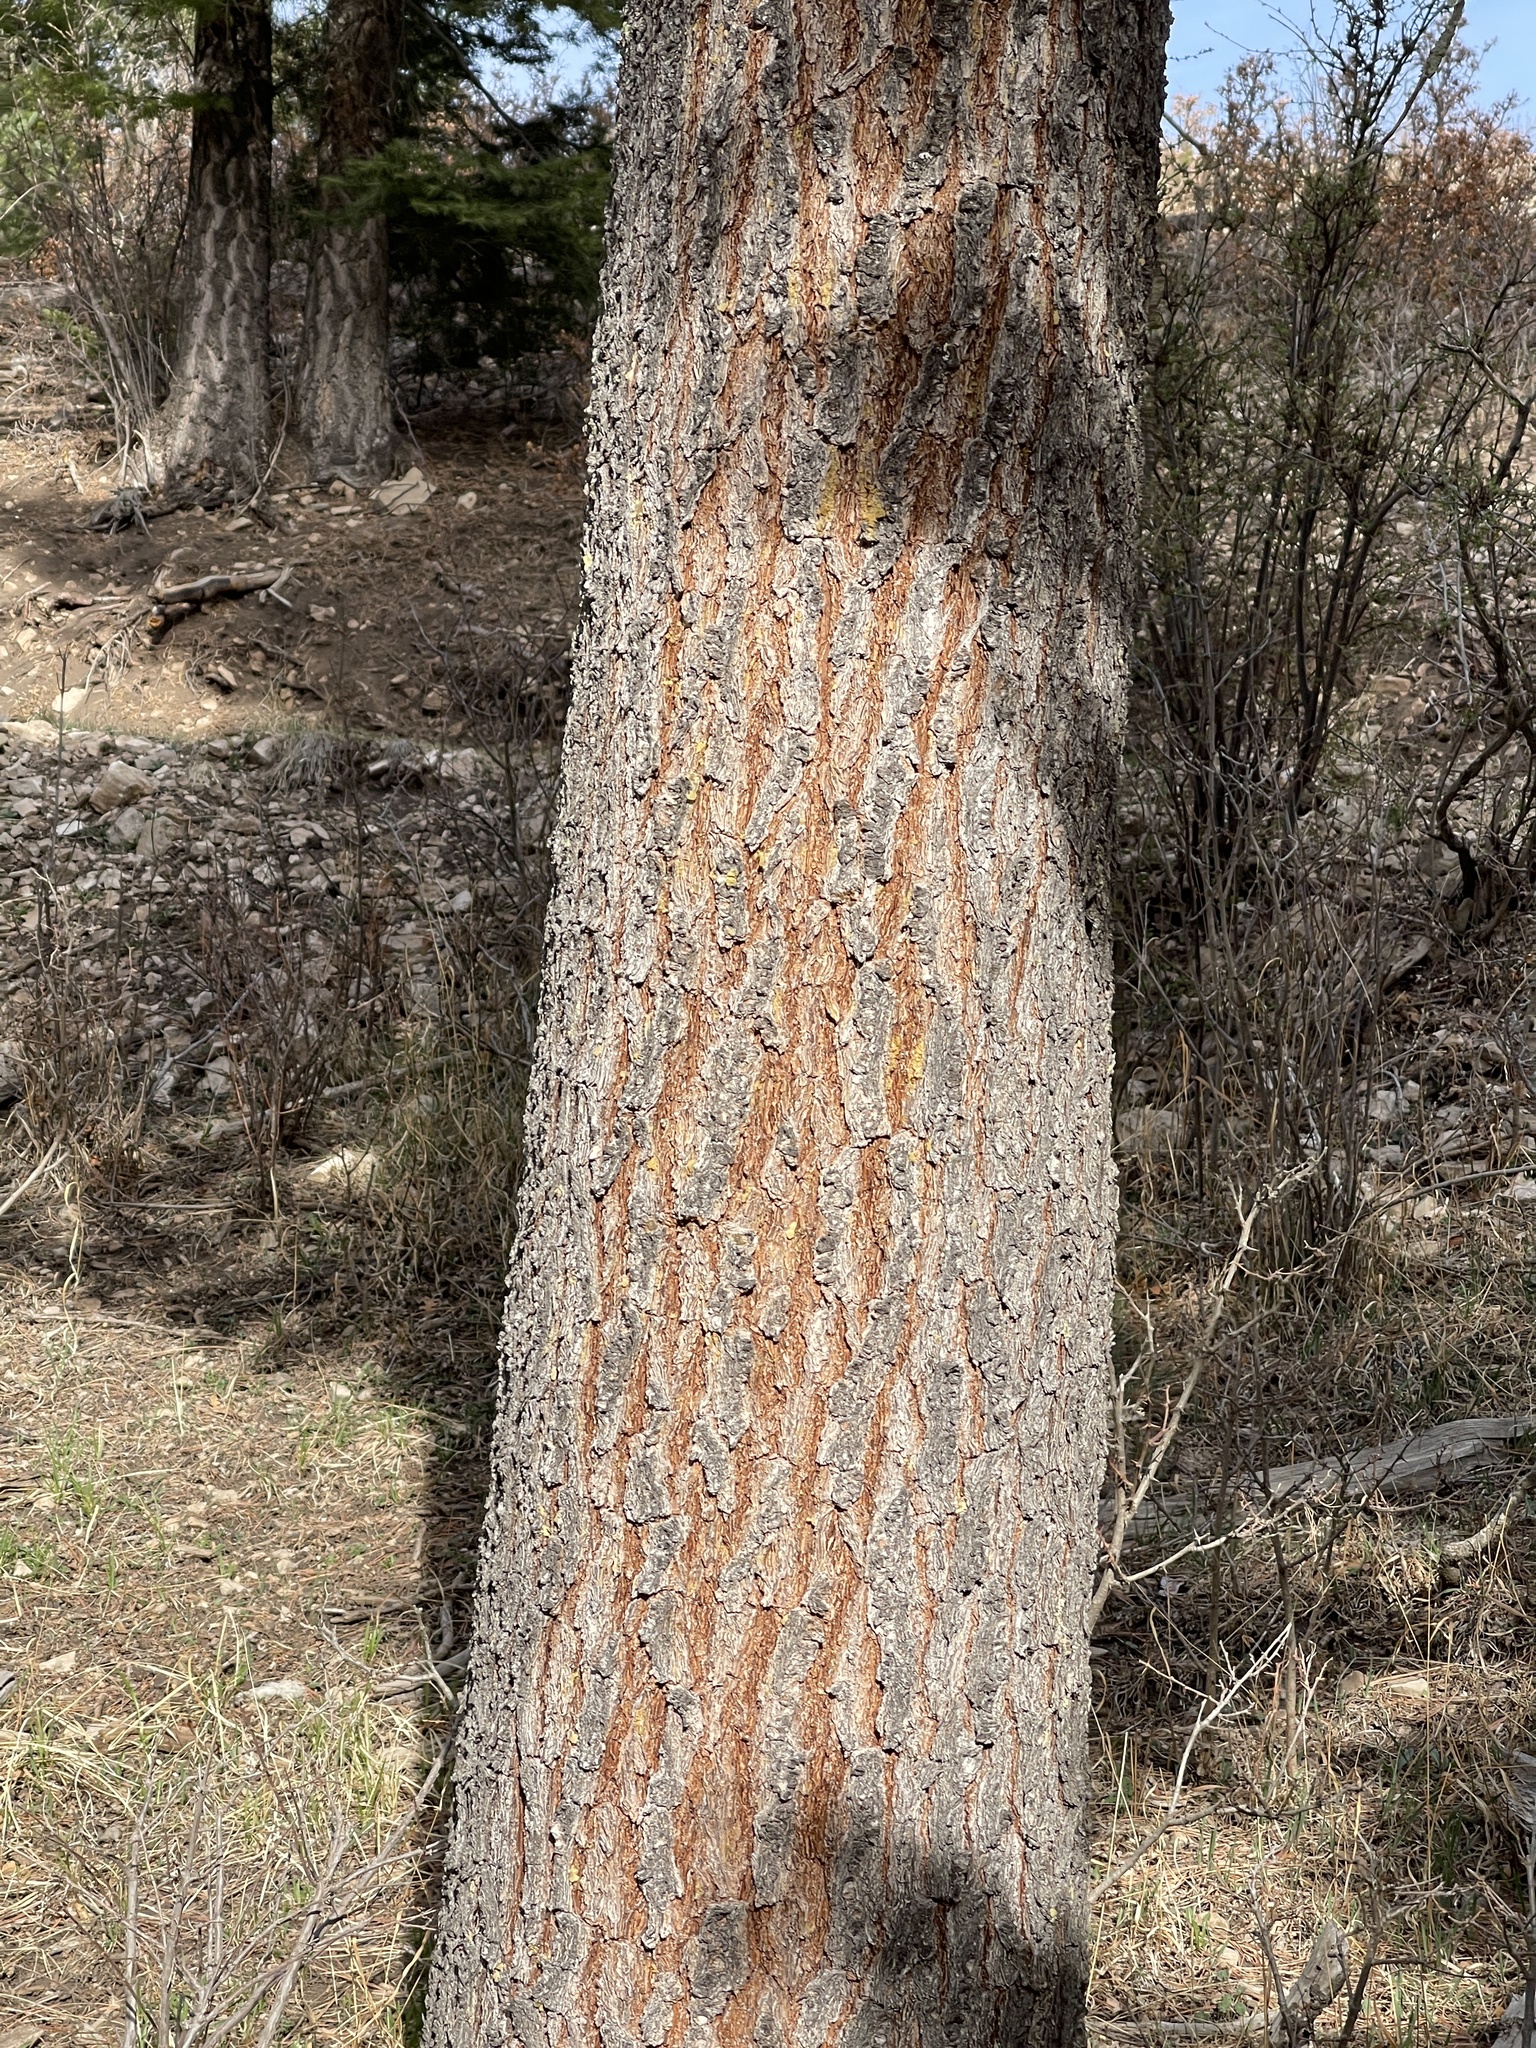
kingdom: Plantae
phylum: Tracheophyta
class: Pinopsida
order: Pinales
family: Pinaceae
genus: Pinus
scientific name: Pinus strobiformis
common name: Southwestern white pine
